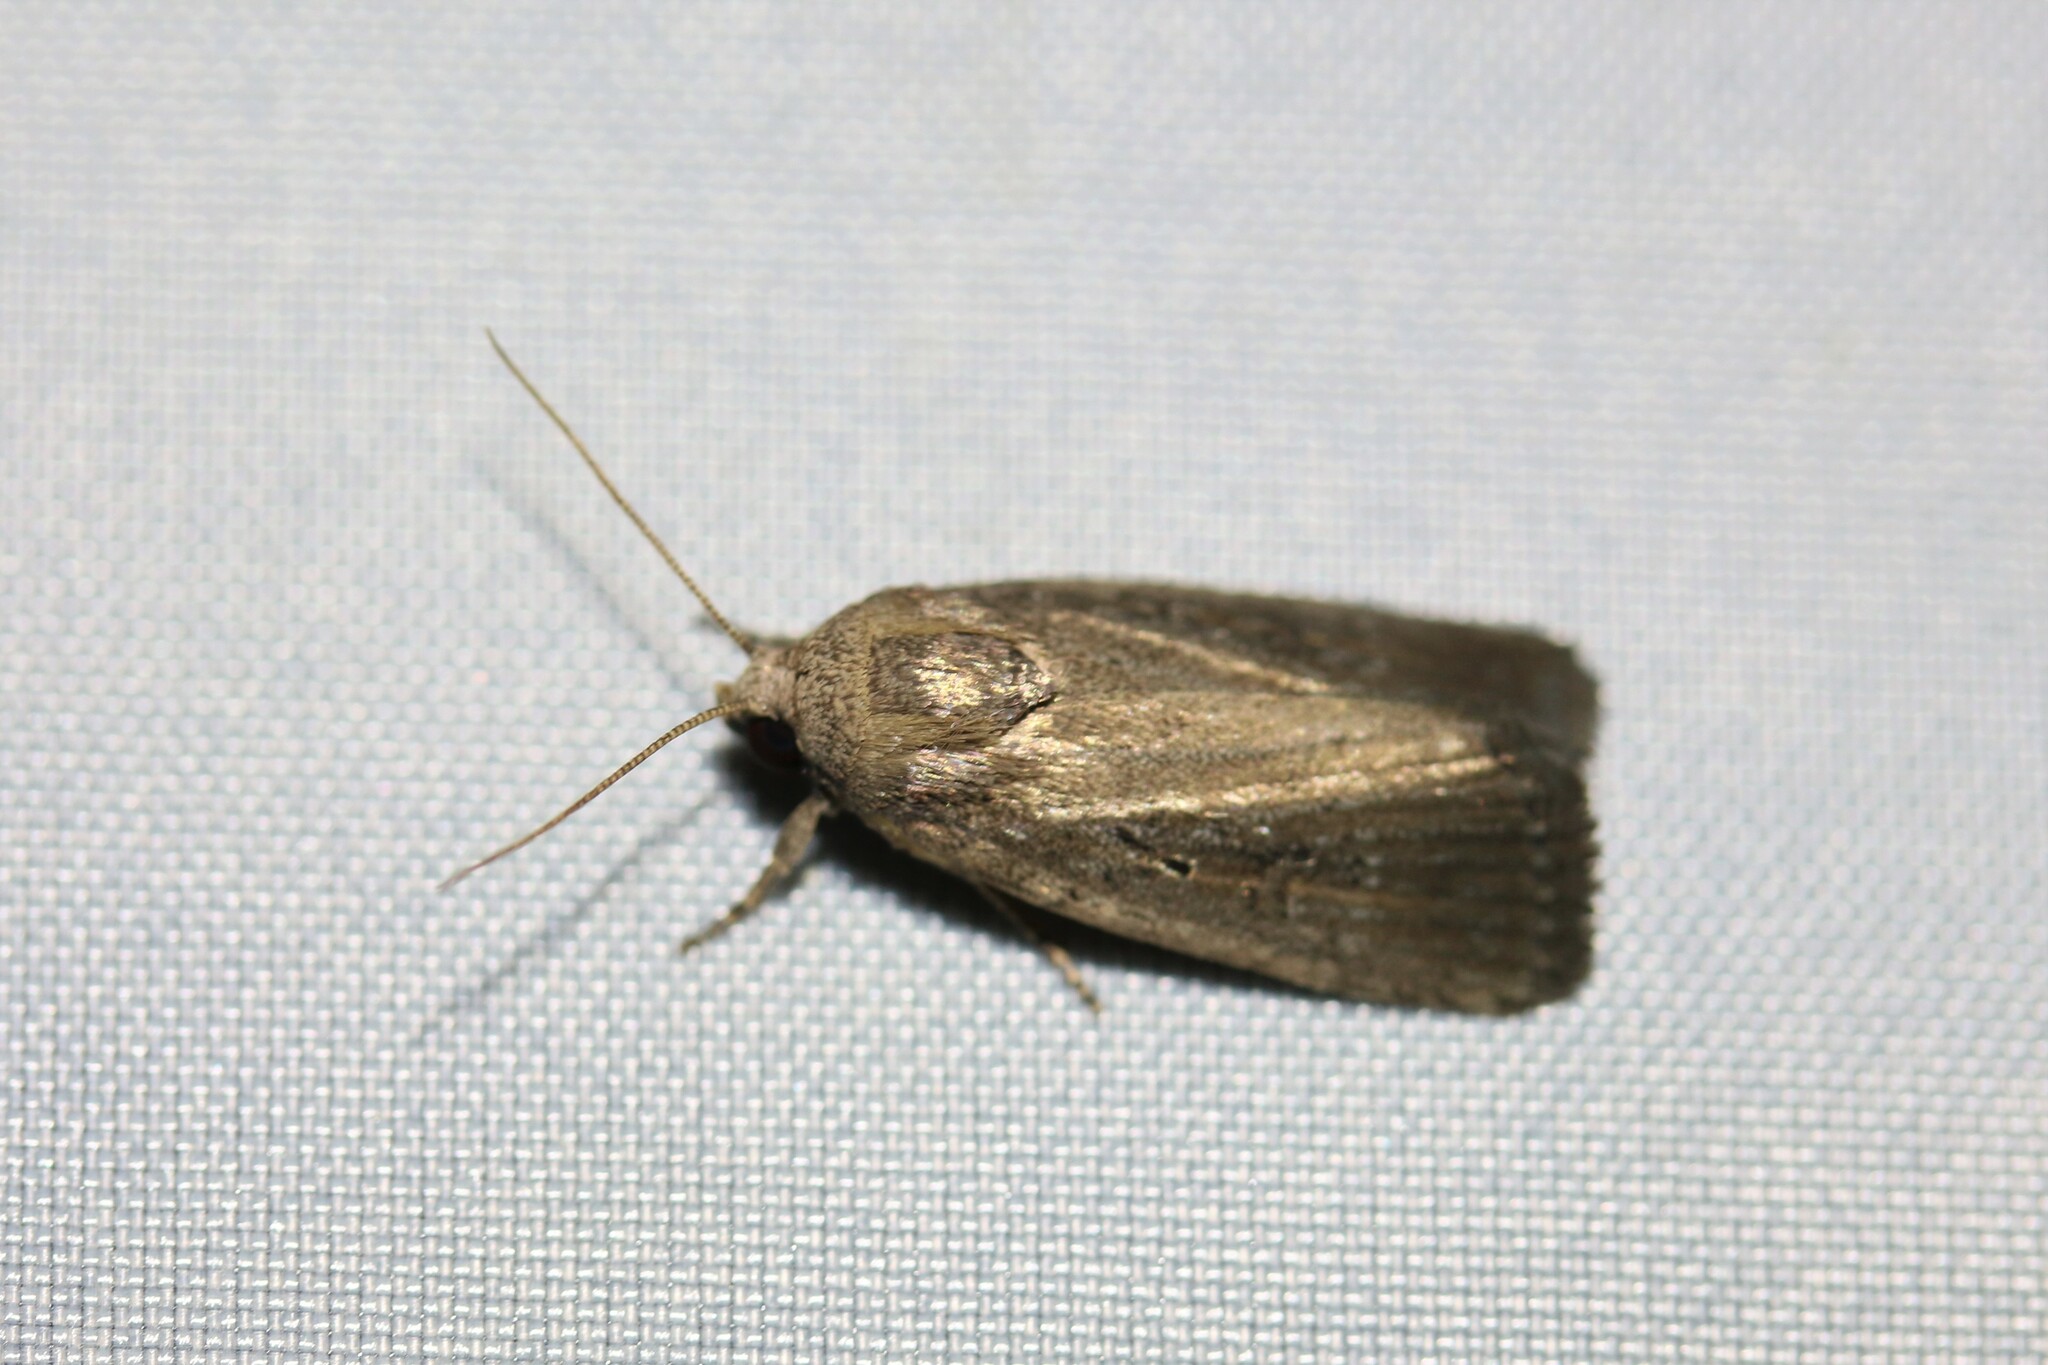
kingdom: Animalia
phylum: Arthropoda
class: Insecta
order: Lepidoptera
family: Noctuidae
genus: Athetis
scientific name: Athetis hospes
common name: Porter's rustic
